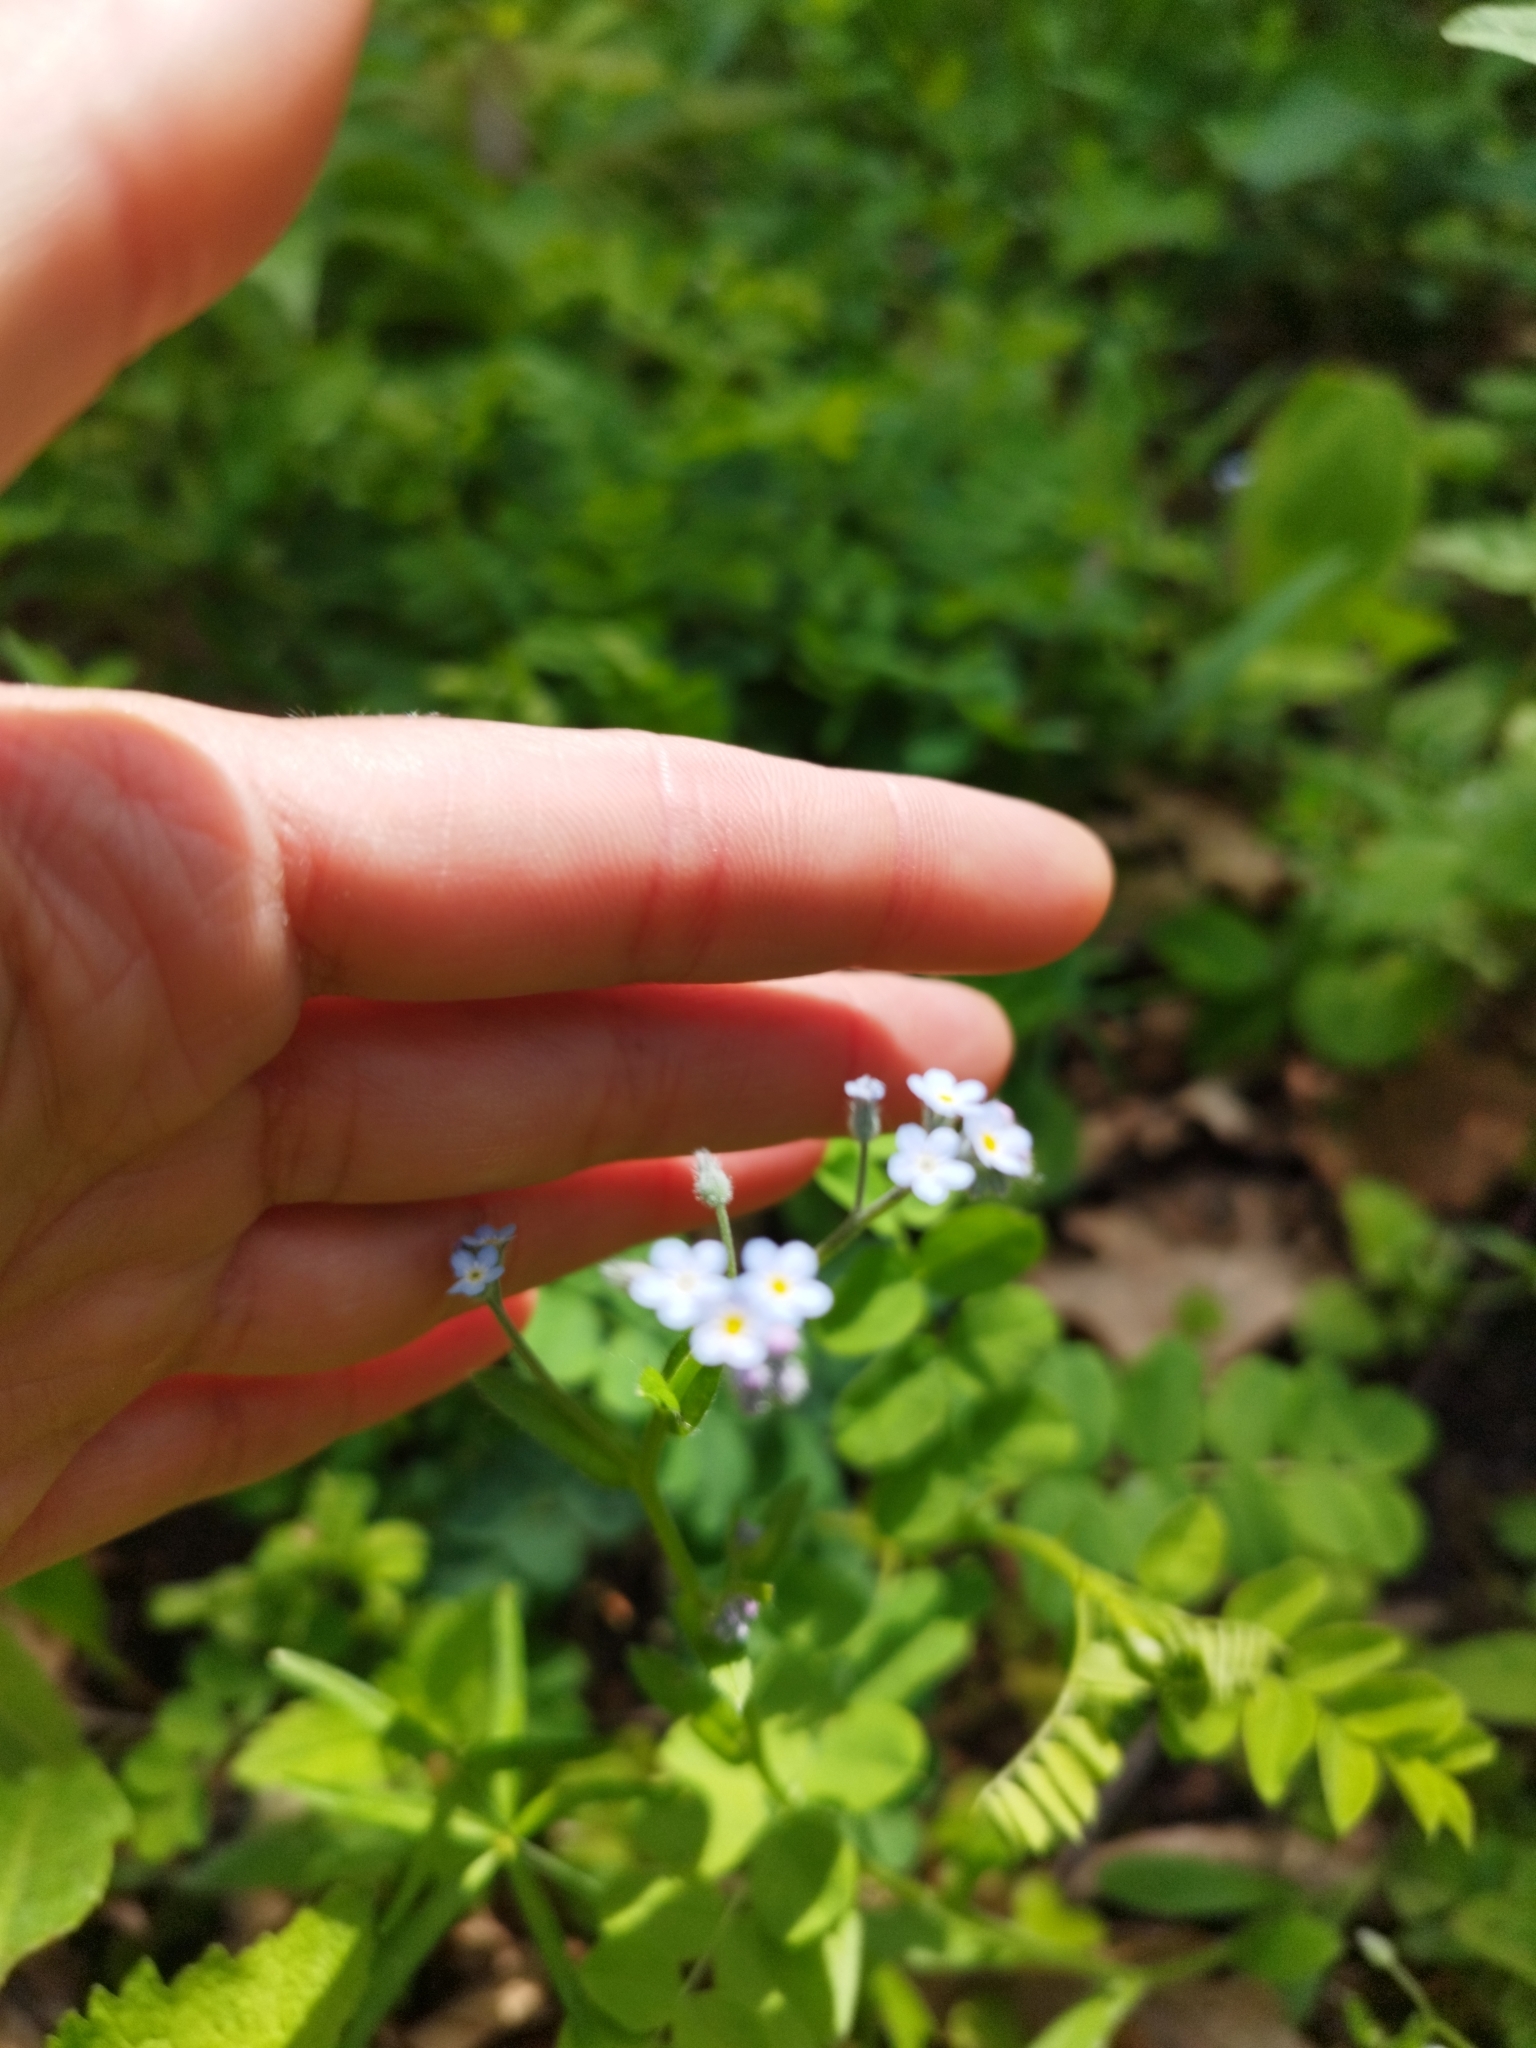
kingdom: Plantae
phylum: Tracheophyta
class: Magnoliopsida
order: Boraginales
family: Boraginaceae
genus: Myosotis
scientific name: Myosotis arvensis
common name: Field forget-me-not
